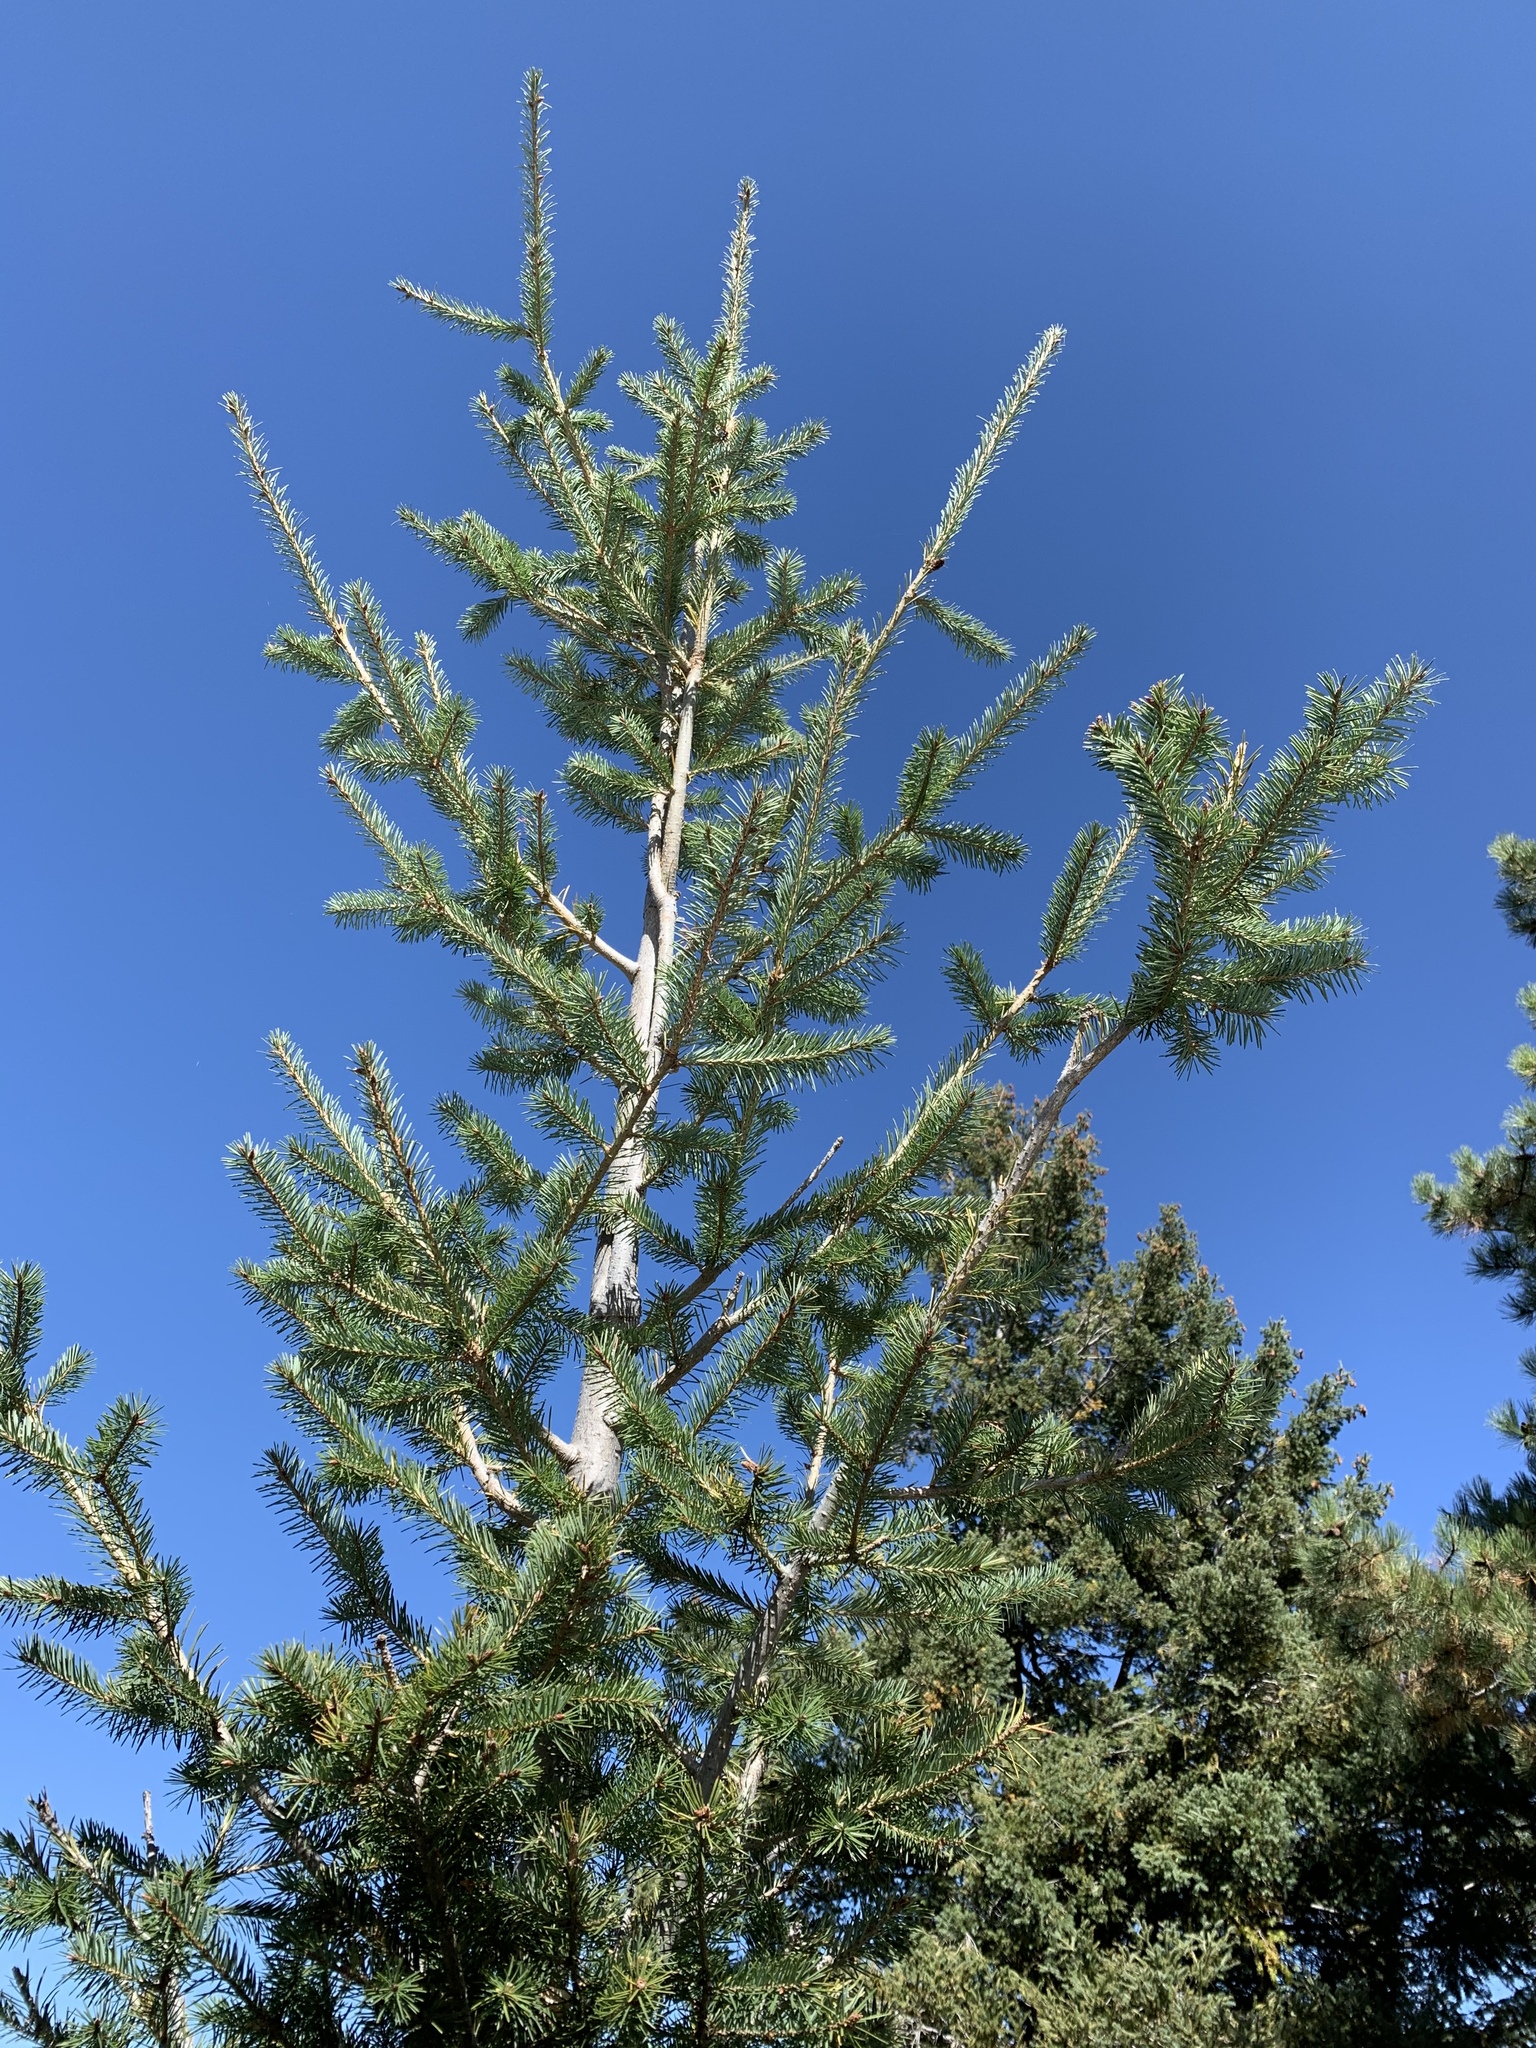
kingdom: Plantae
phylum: Tracheophyta
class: Pinopsida
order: Pinales
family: Pinaceae
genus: Picea
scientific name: Picea engelmannii
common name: Engelmann spruce
